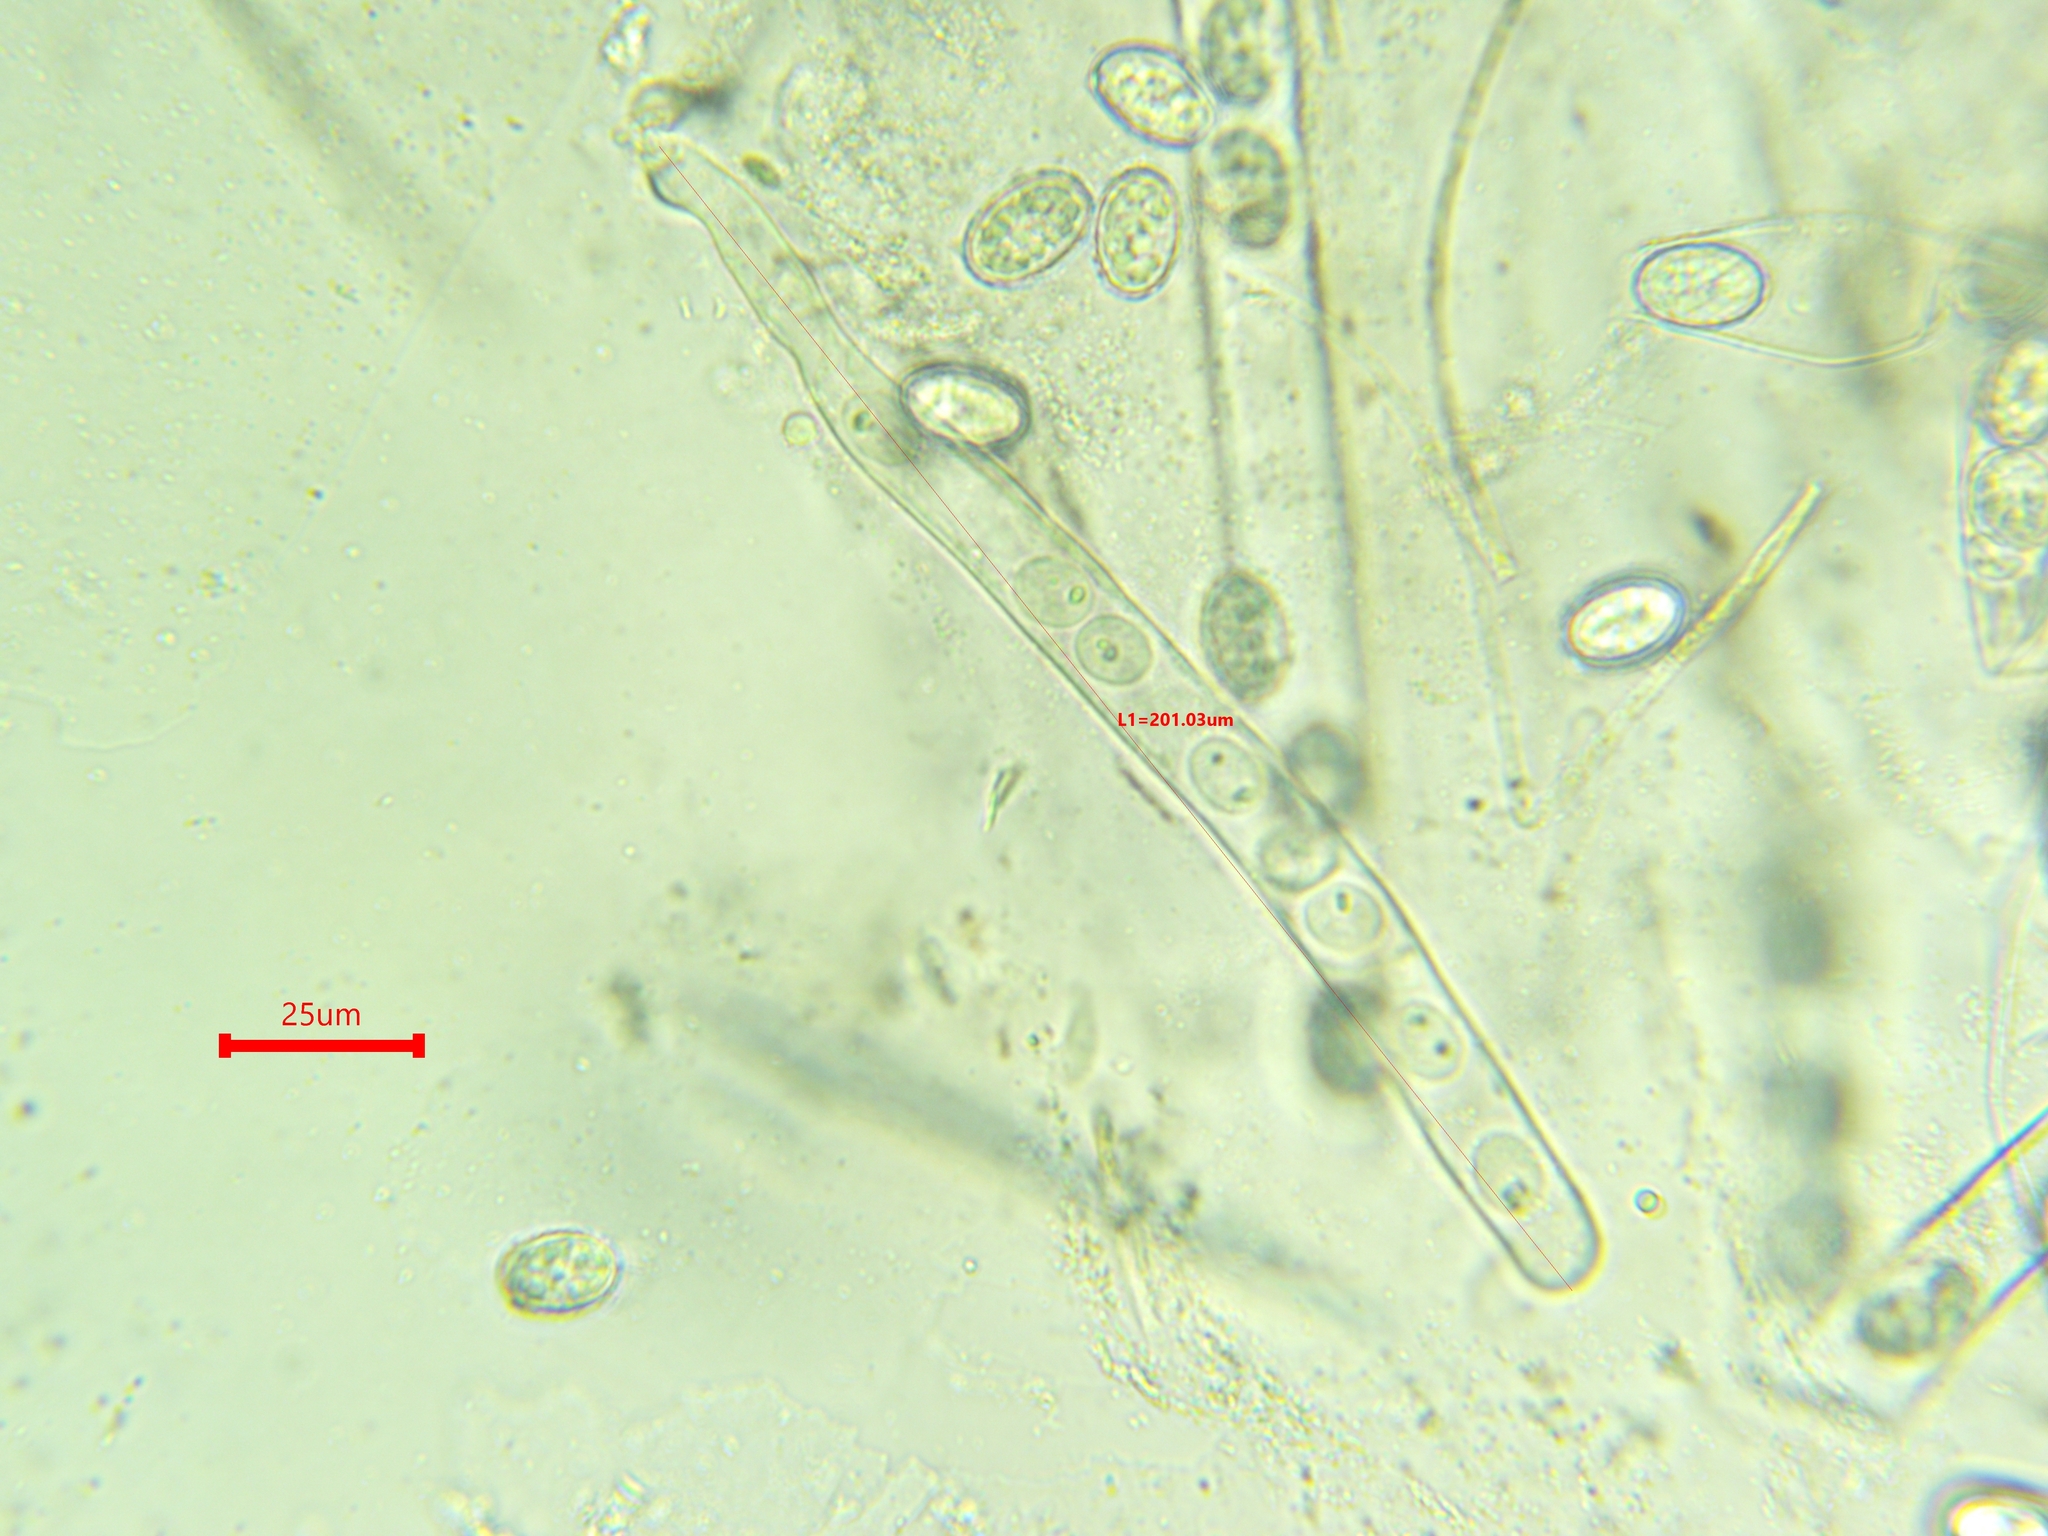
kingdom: Fungi
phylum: Ascomycota
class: Pezizomycetes
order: Pezizales
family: Pyronemataceae
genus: Scutellinia
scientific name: Scutellinia colensoi
